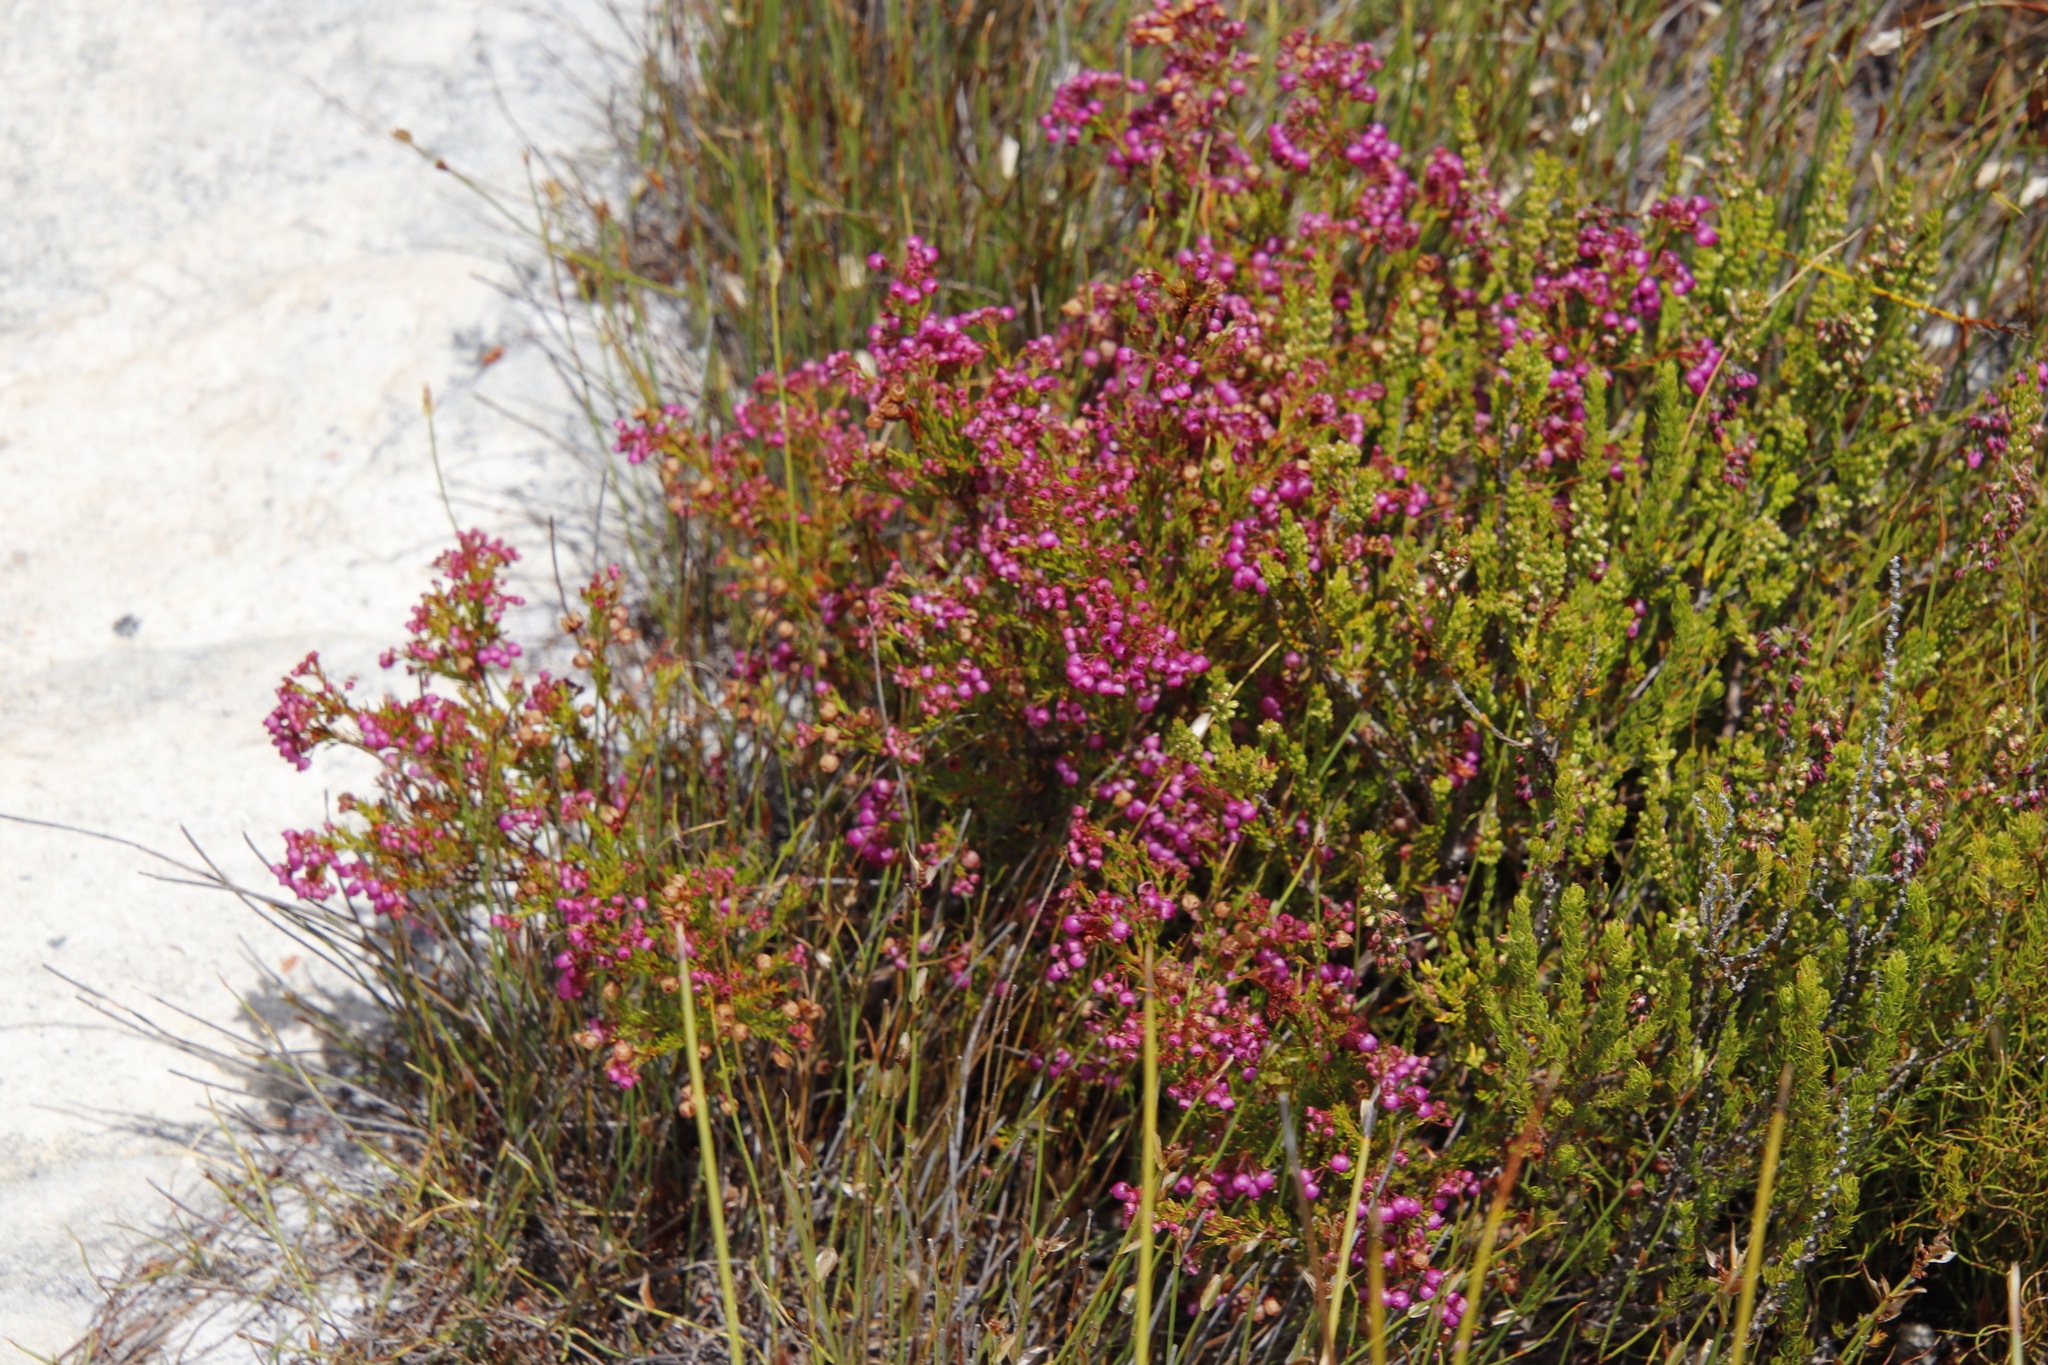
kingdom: Plantae
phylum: Tracheophyta
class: Magnoliopsida
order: Ericales
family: Ericaceae
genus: Erica
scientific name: Erica multumbellifera
